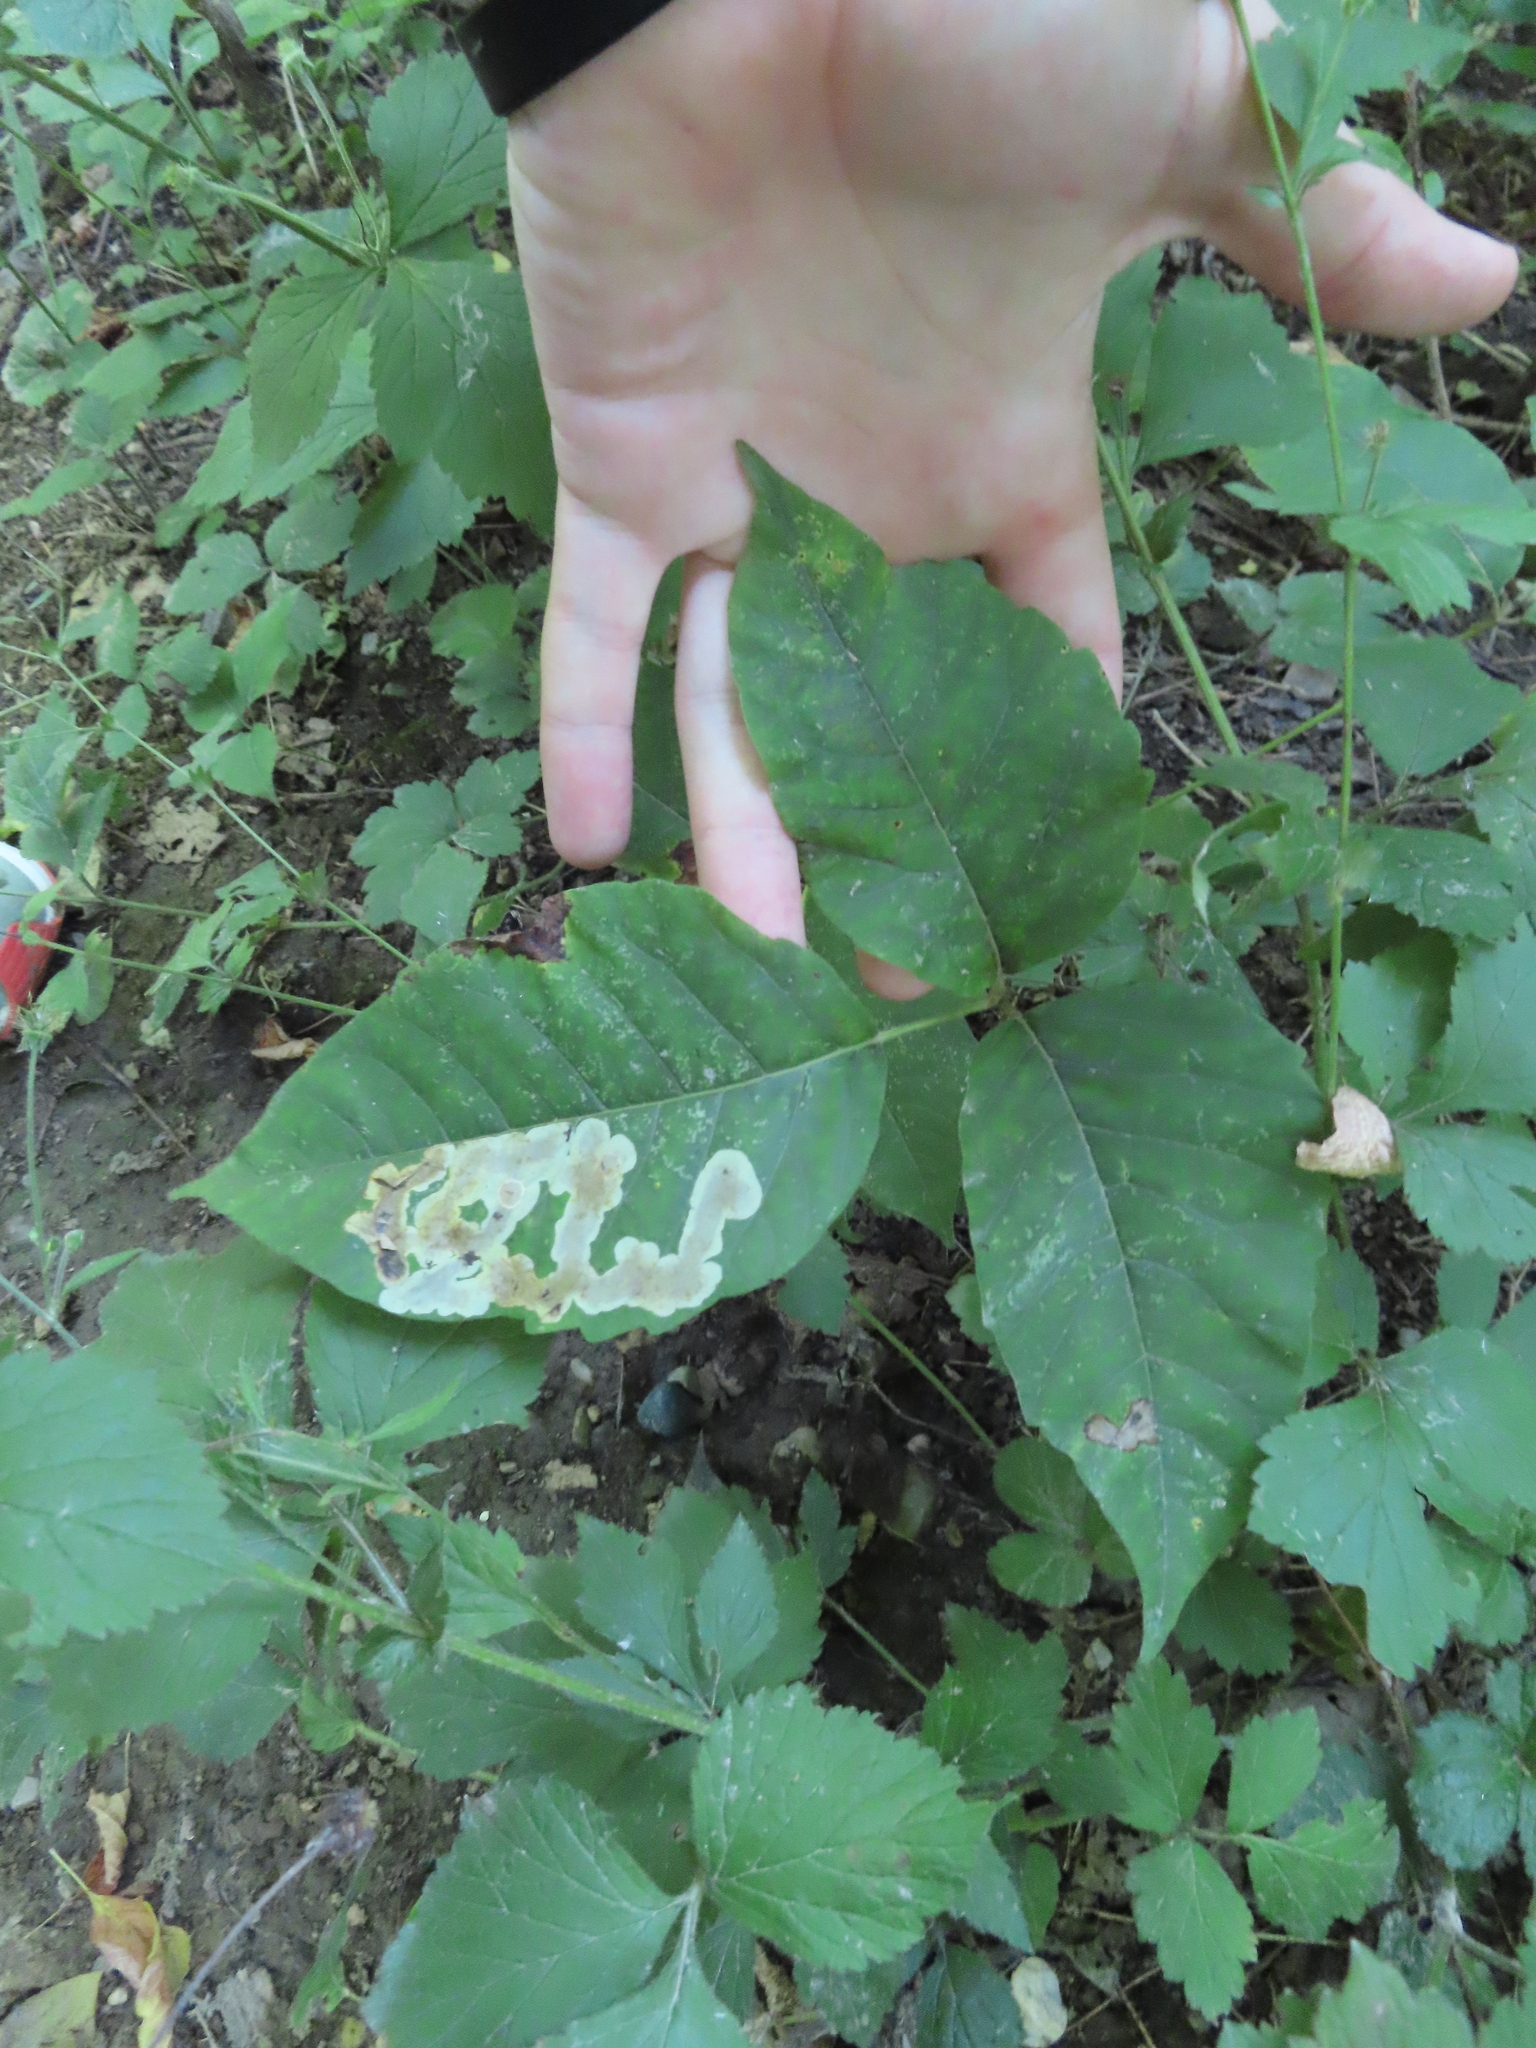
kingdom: Animalia
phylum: Arthropoda
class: Insecta
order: Lepidoptera
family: Gracillariidae
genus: Cameraria
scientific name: Cameraria guttifinitella
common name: Poison ivy leaf-miner moth
